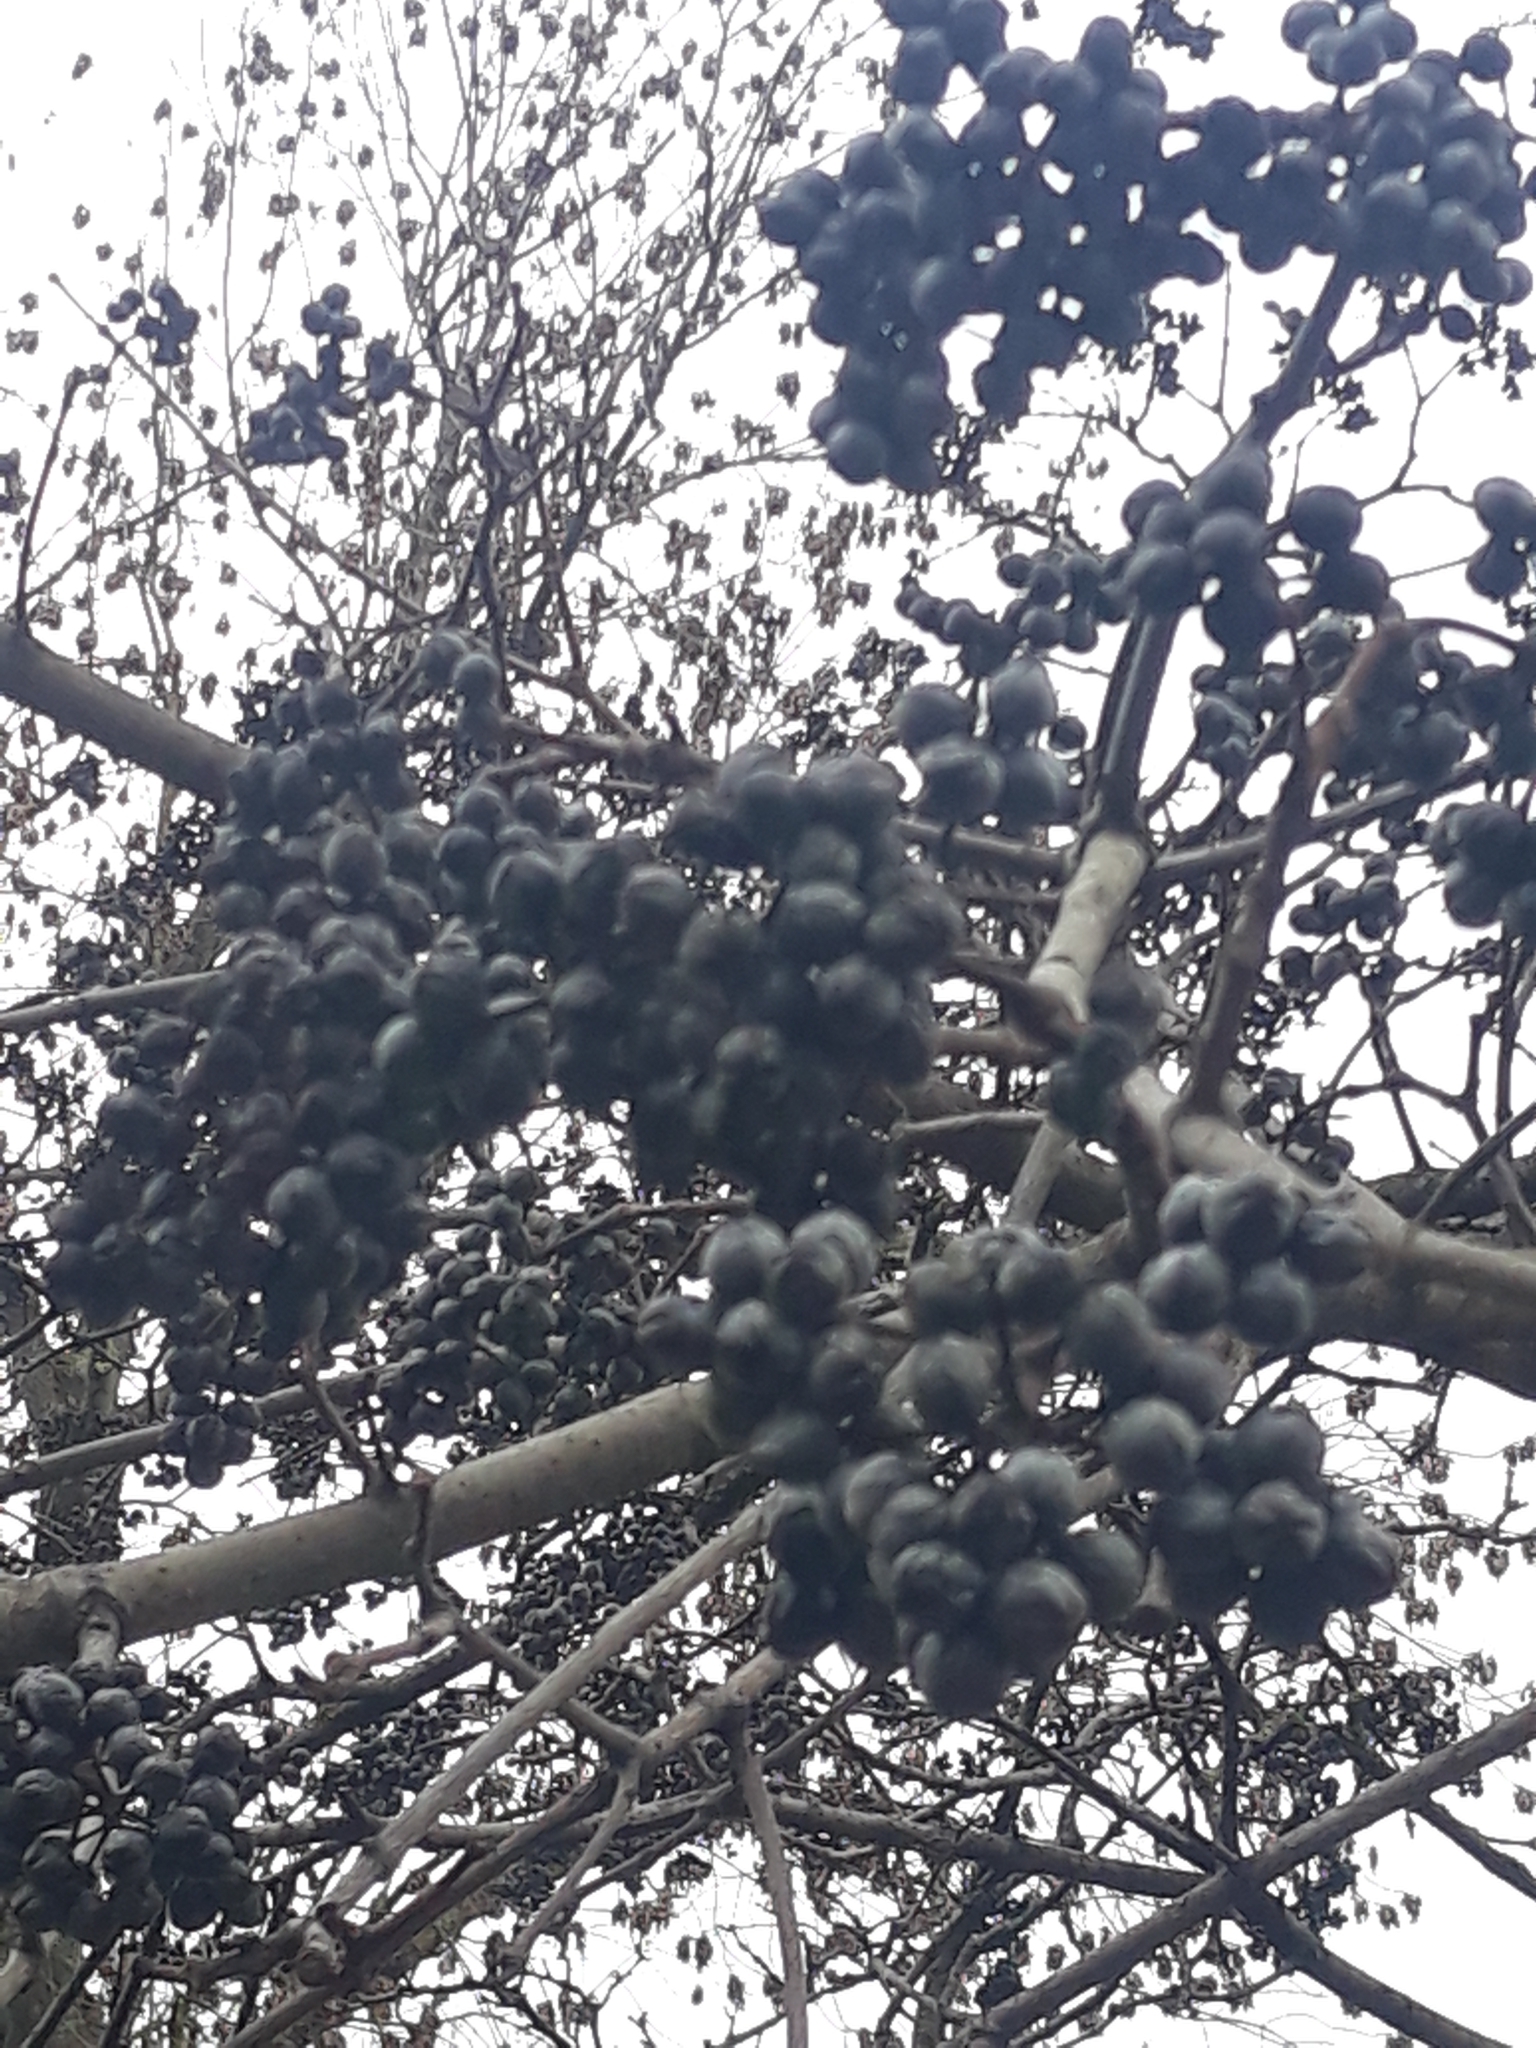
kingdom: Plantae
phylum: Tracheophyta
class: Magnoliopsida
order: Lamiales
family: Paulowniaceae
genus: Paulownia
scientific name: Paulownia tomentosa
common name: Foxglove-tree
